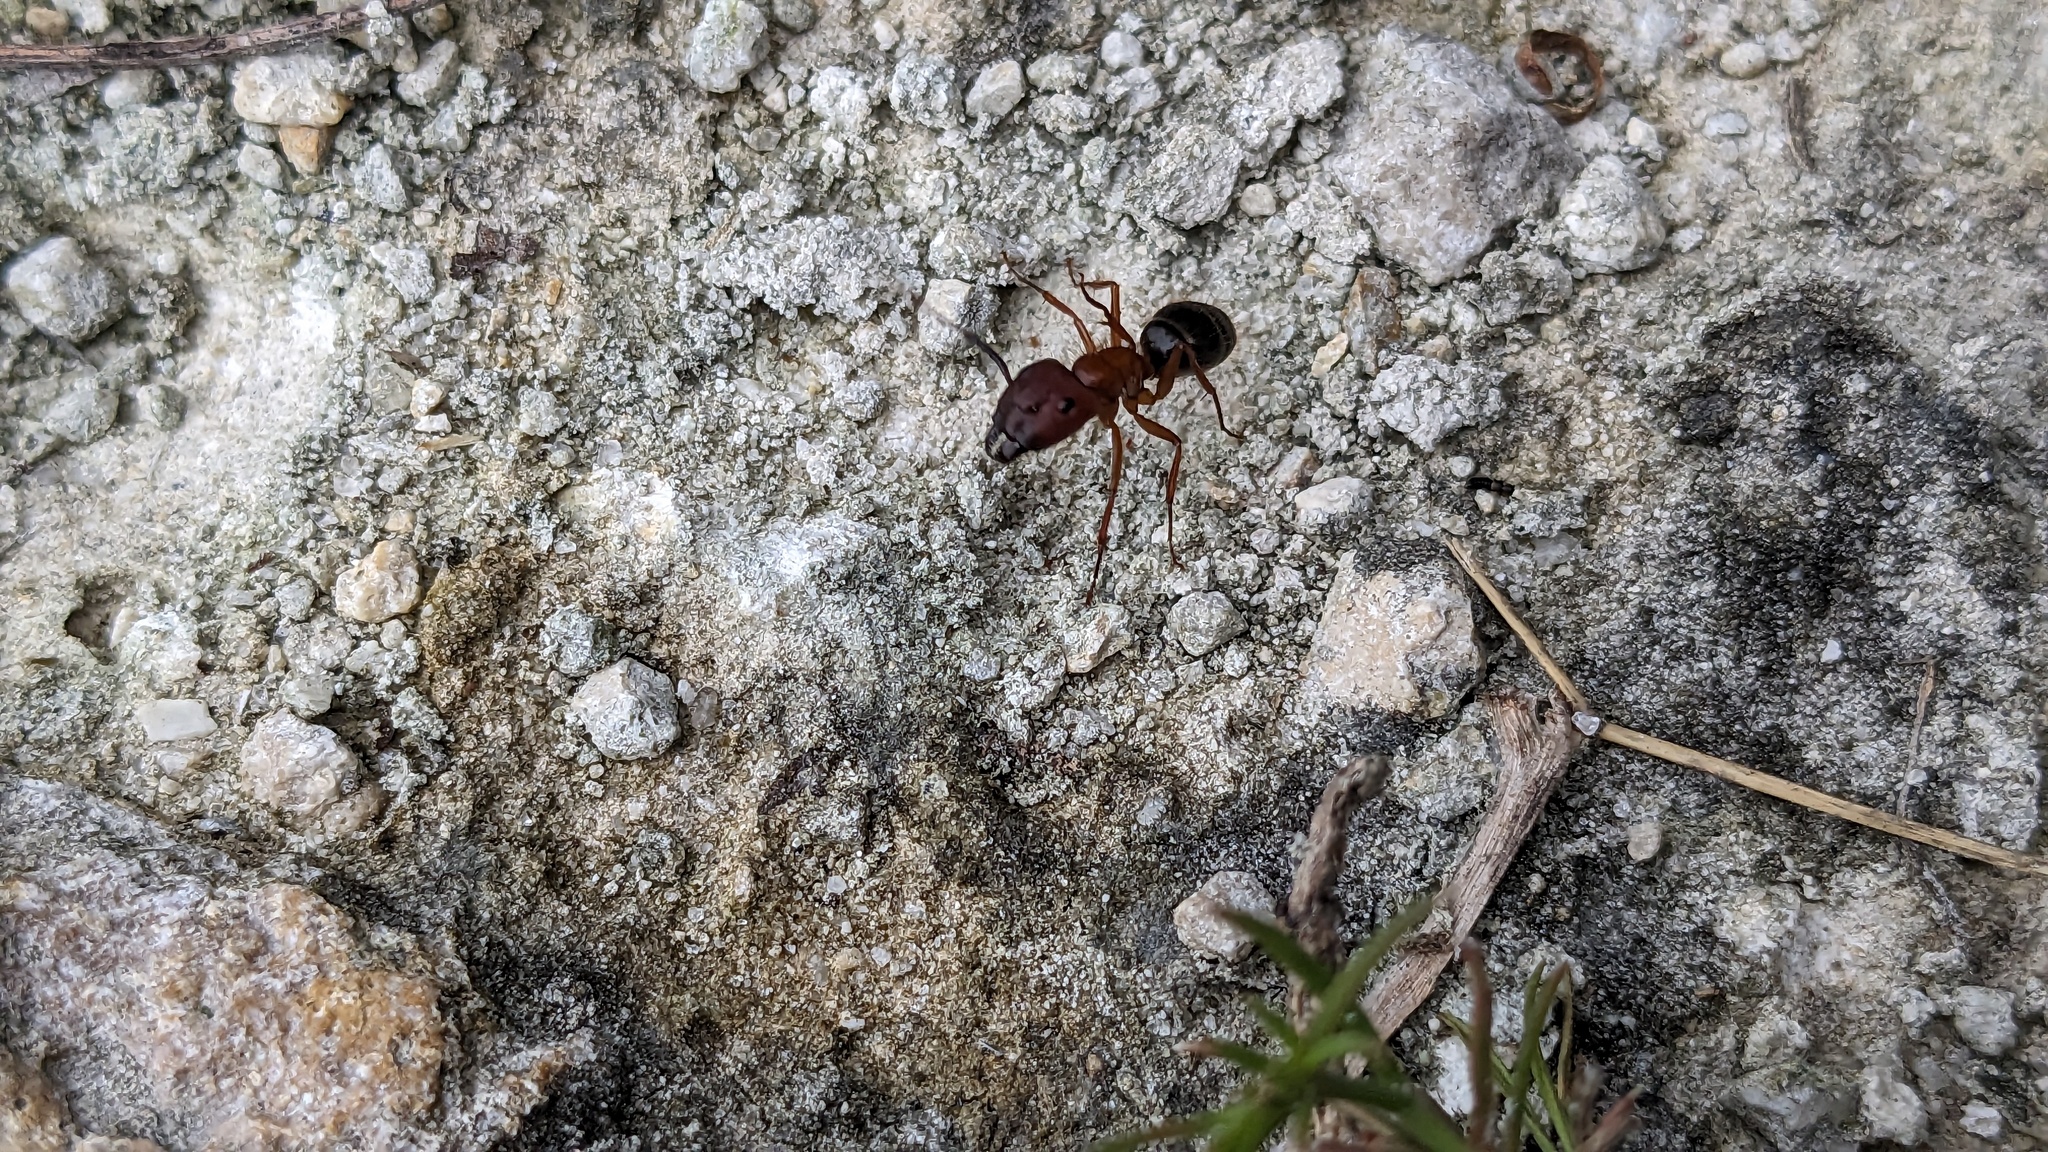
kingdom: Animalia
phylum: Arthropoda
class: Insecta
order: Hymenoptera
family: Formicidae
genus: Camponotus
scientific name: Camponotus floridanus
